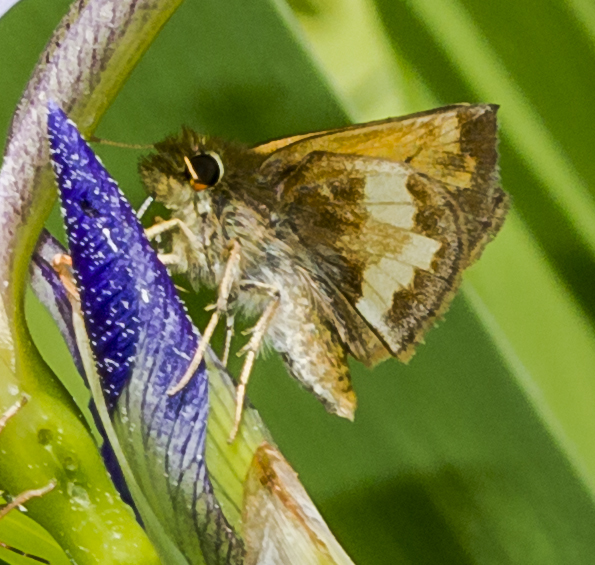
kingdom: Animalia
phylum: Arthropoda
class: Insecta
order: Lepidoptera
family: Hesperiidae
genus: Lon
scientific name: Lon hobomok
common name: Hobomok skipper
